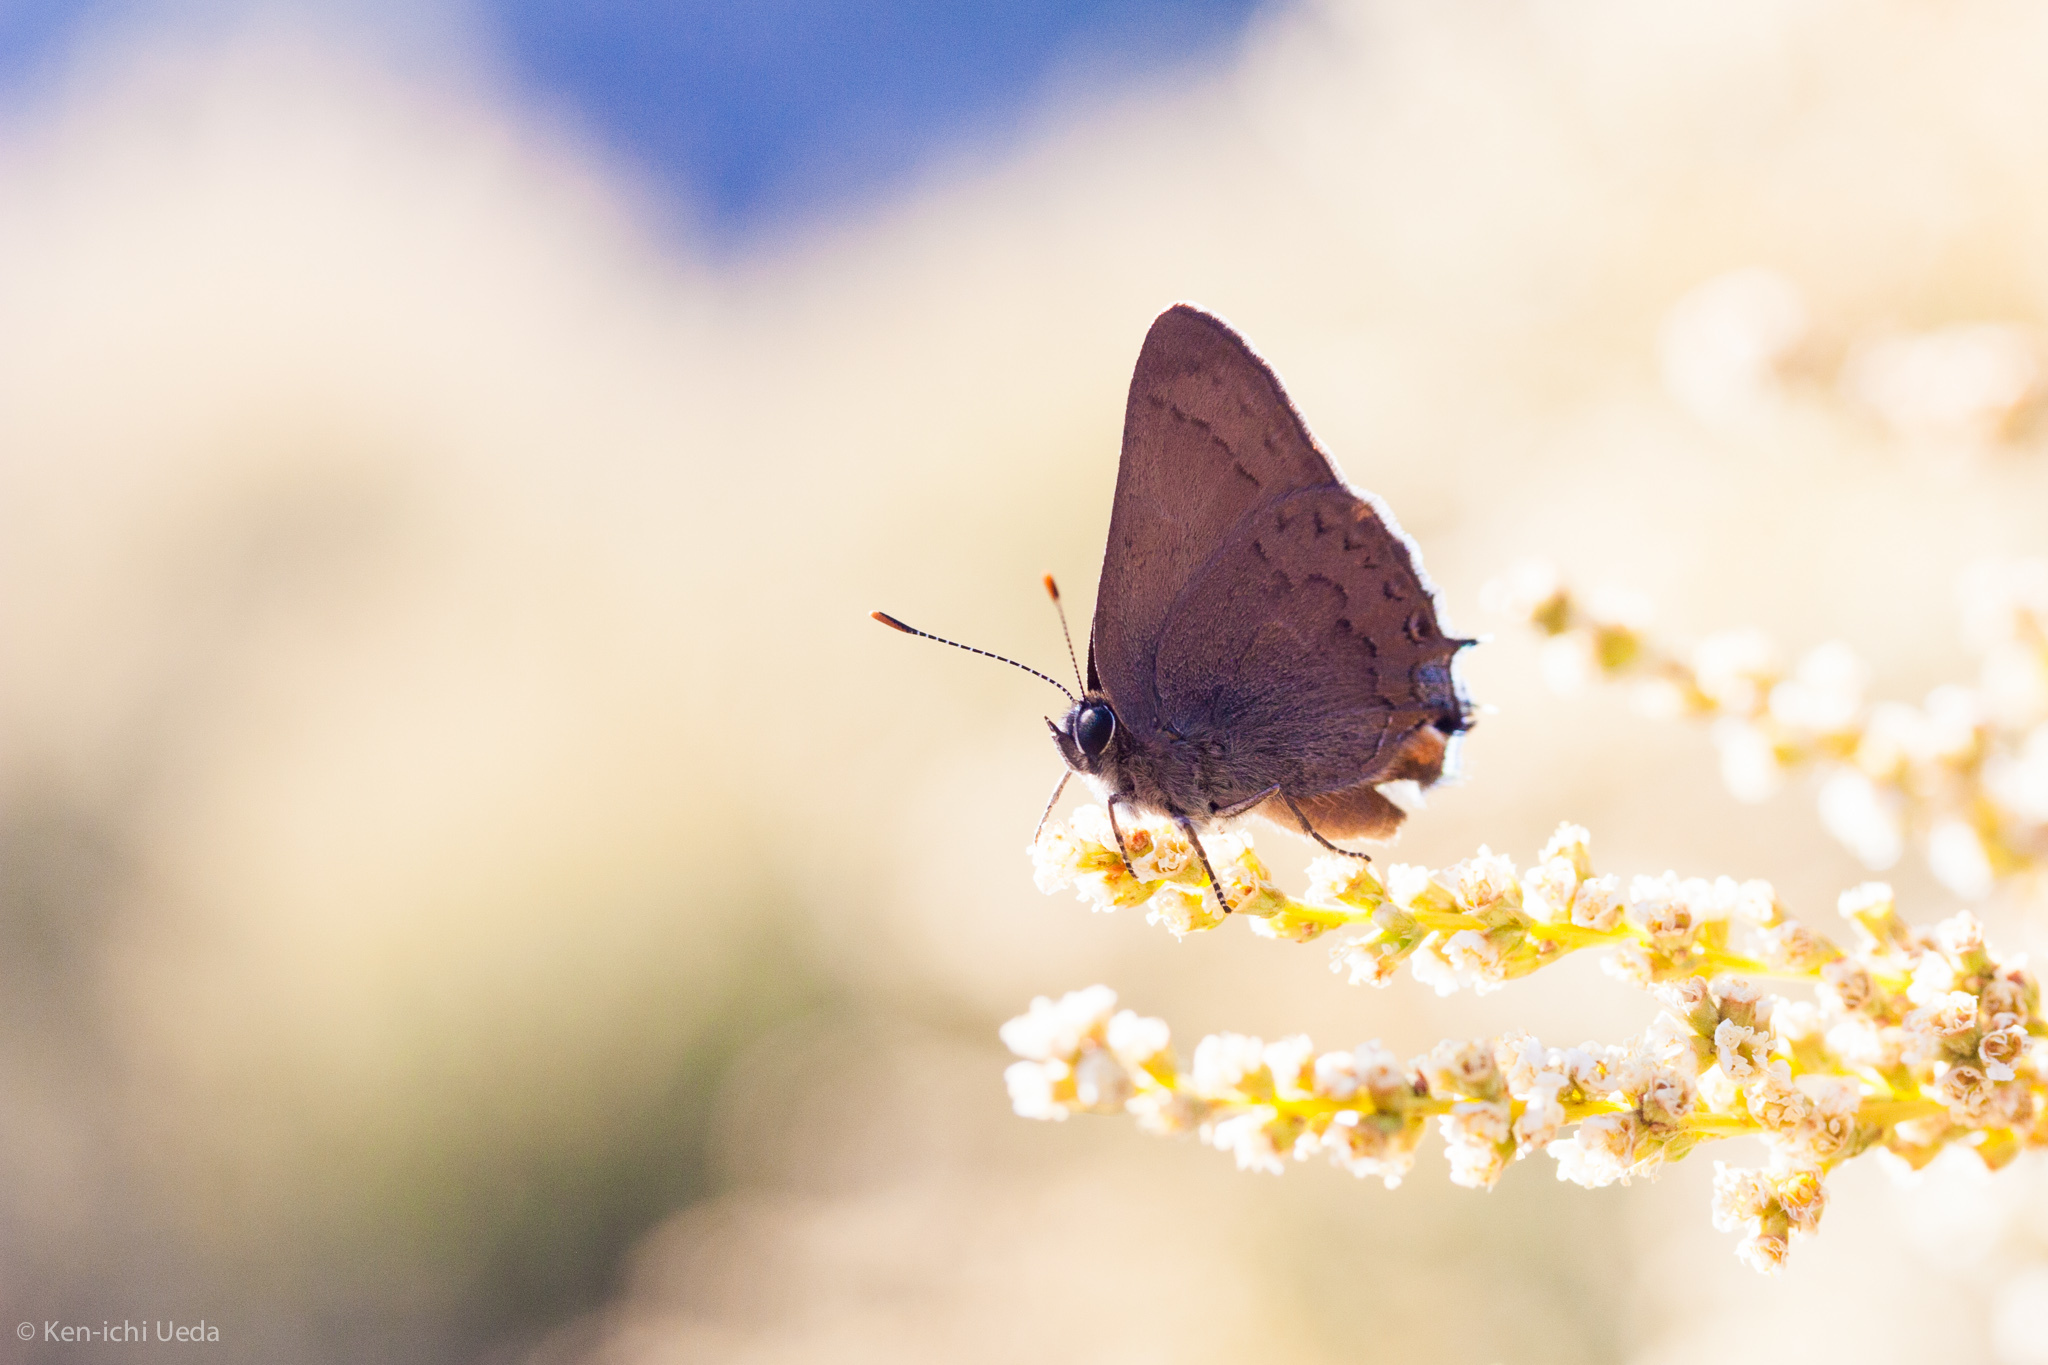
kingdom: Animalia
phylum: Arthropoda
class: Insecta
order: Lepidoptera
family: Lycaenidae
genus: Strymon
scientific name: Strymon saepium
